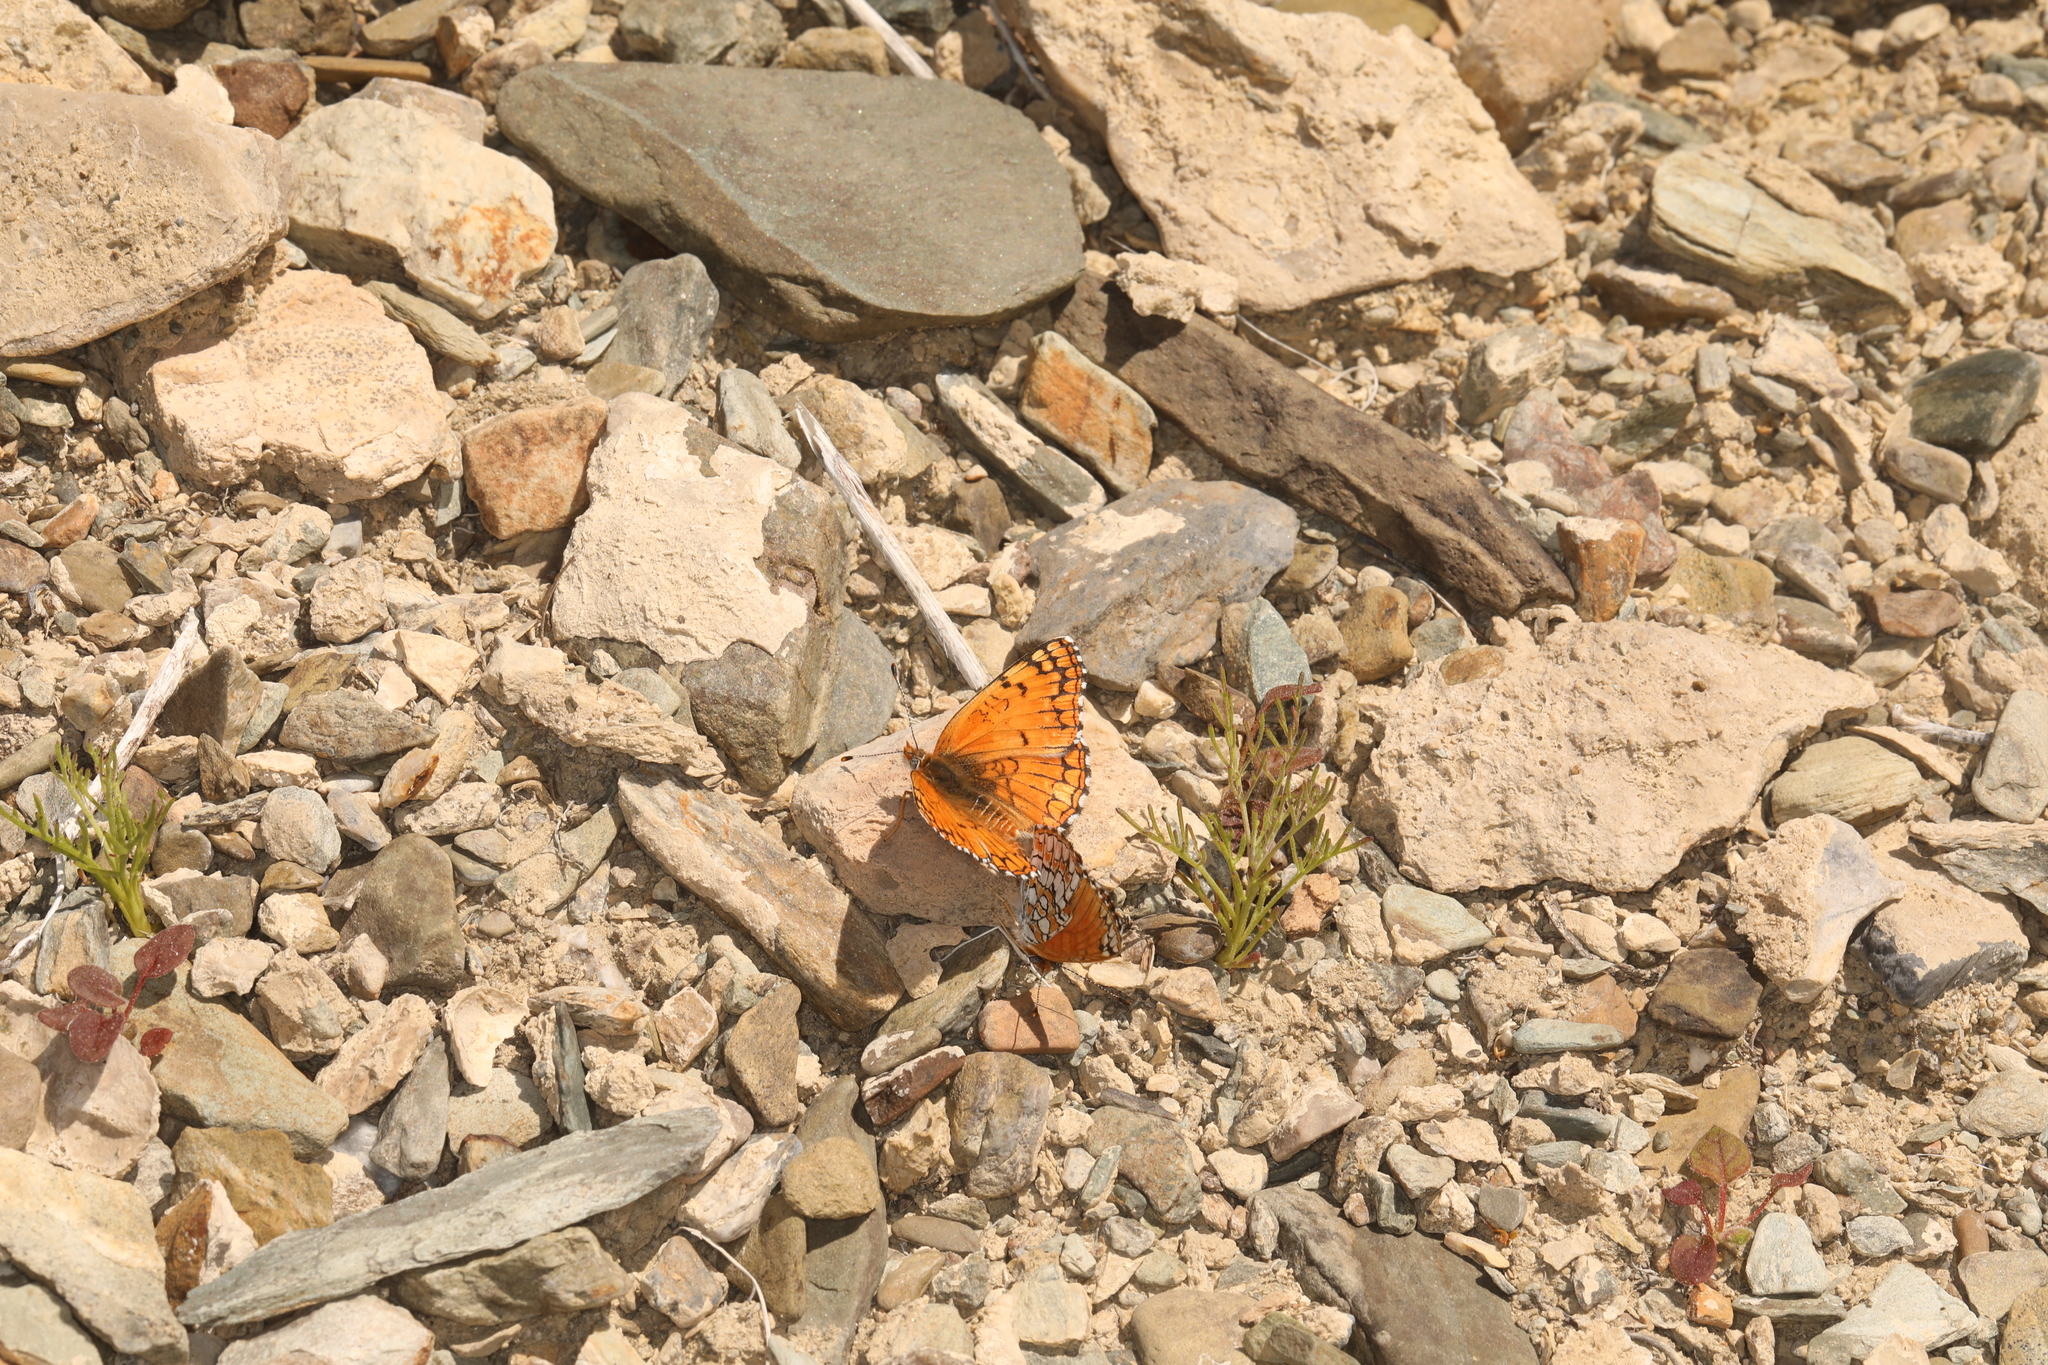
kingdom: Animalia
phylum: Arthropoda
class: Insecta
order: Lepidoptera
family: Nymphalidae
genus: Chlosyne
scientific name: Chlosyne acastus
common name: Sagebrush checkerspot
